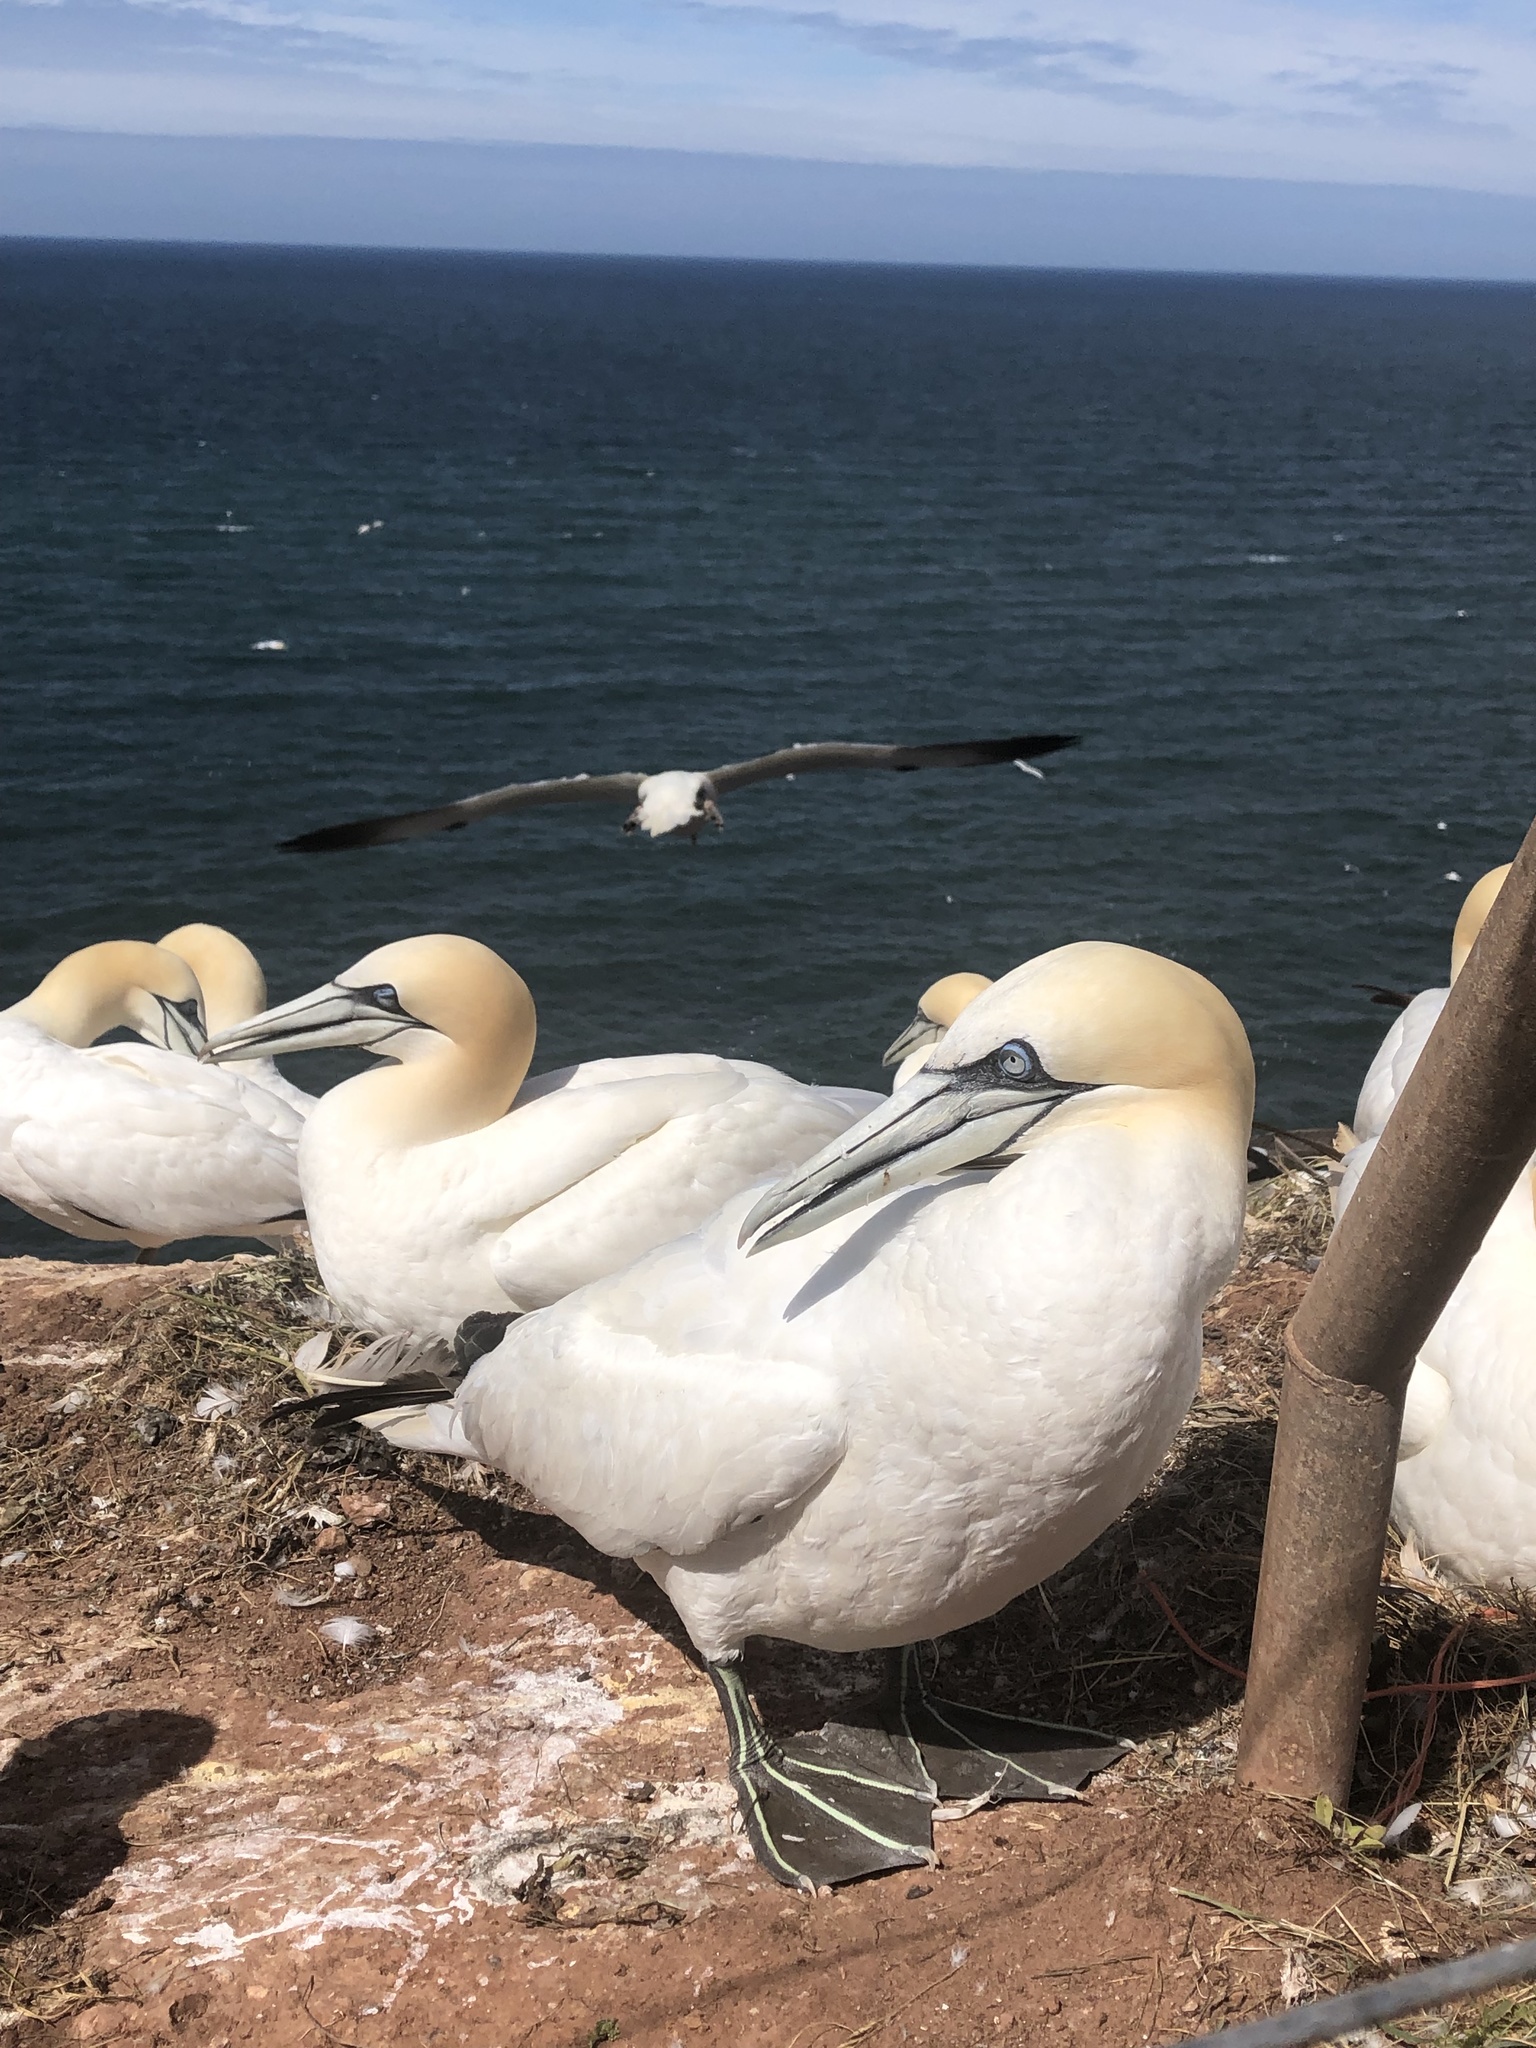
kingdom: Animalia
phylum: Chordata
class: Aves
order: Suliformes
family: Sulidae
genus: Morus
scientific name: Morus bassanus
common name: Northern gannet
